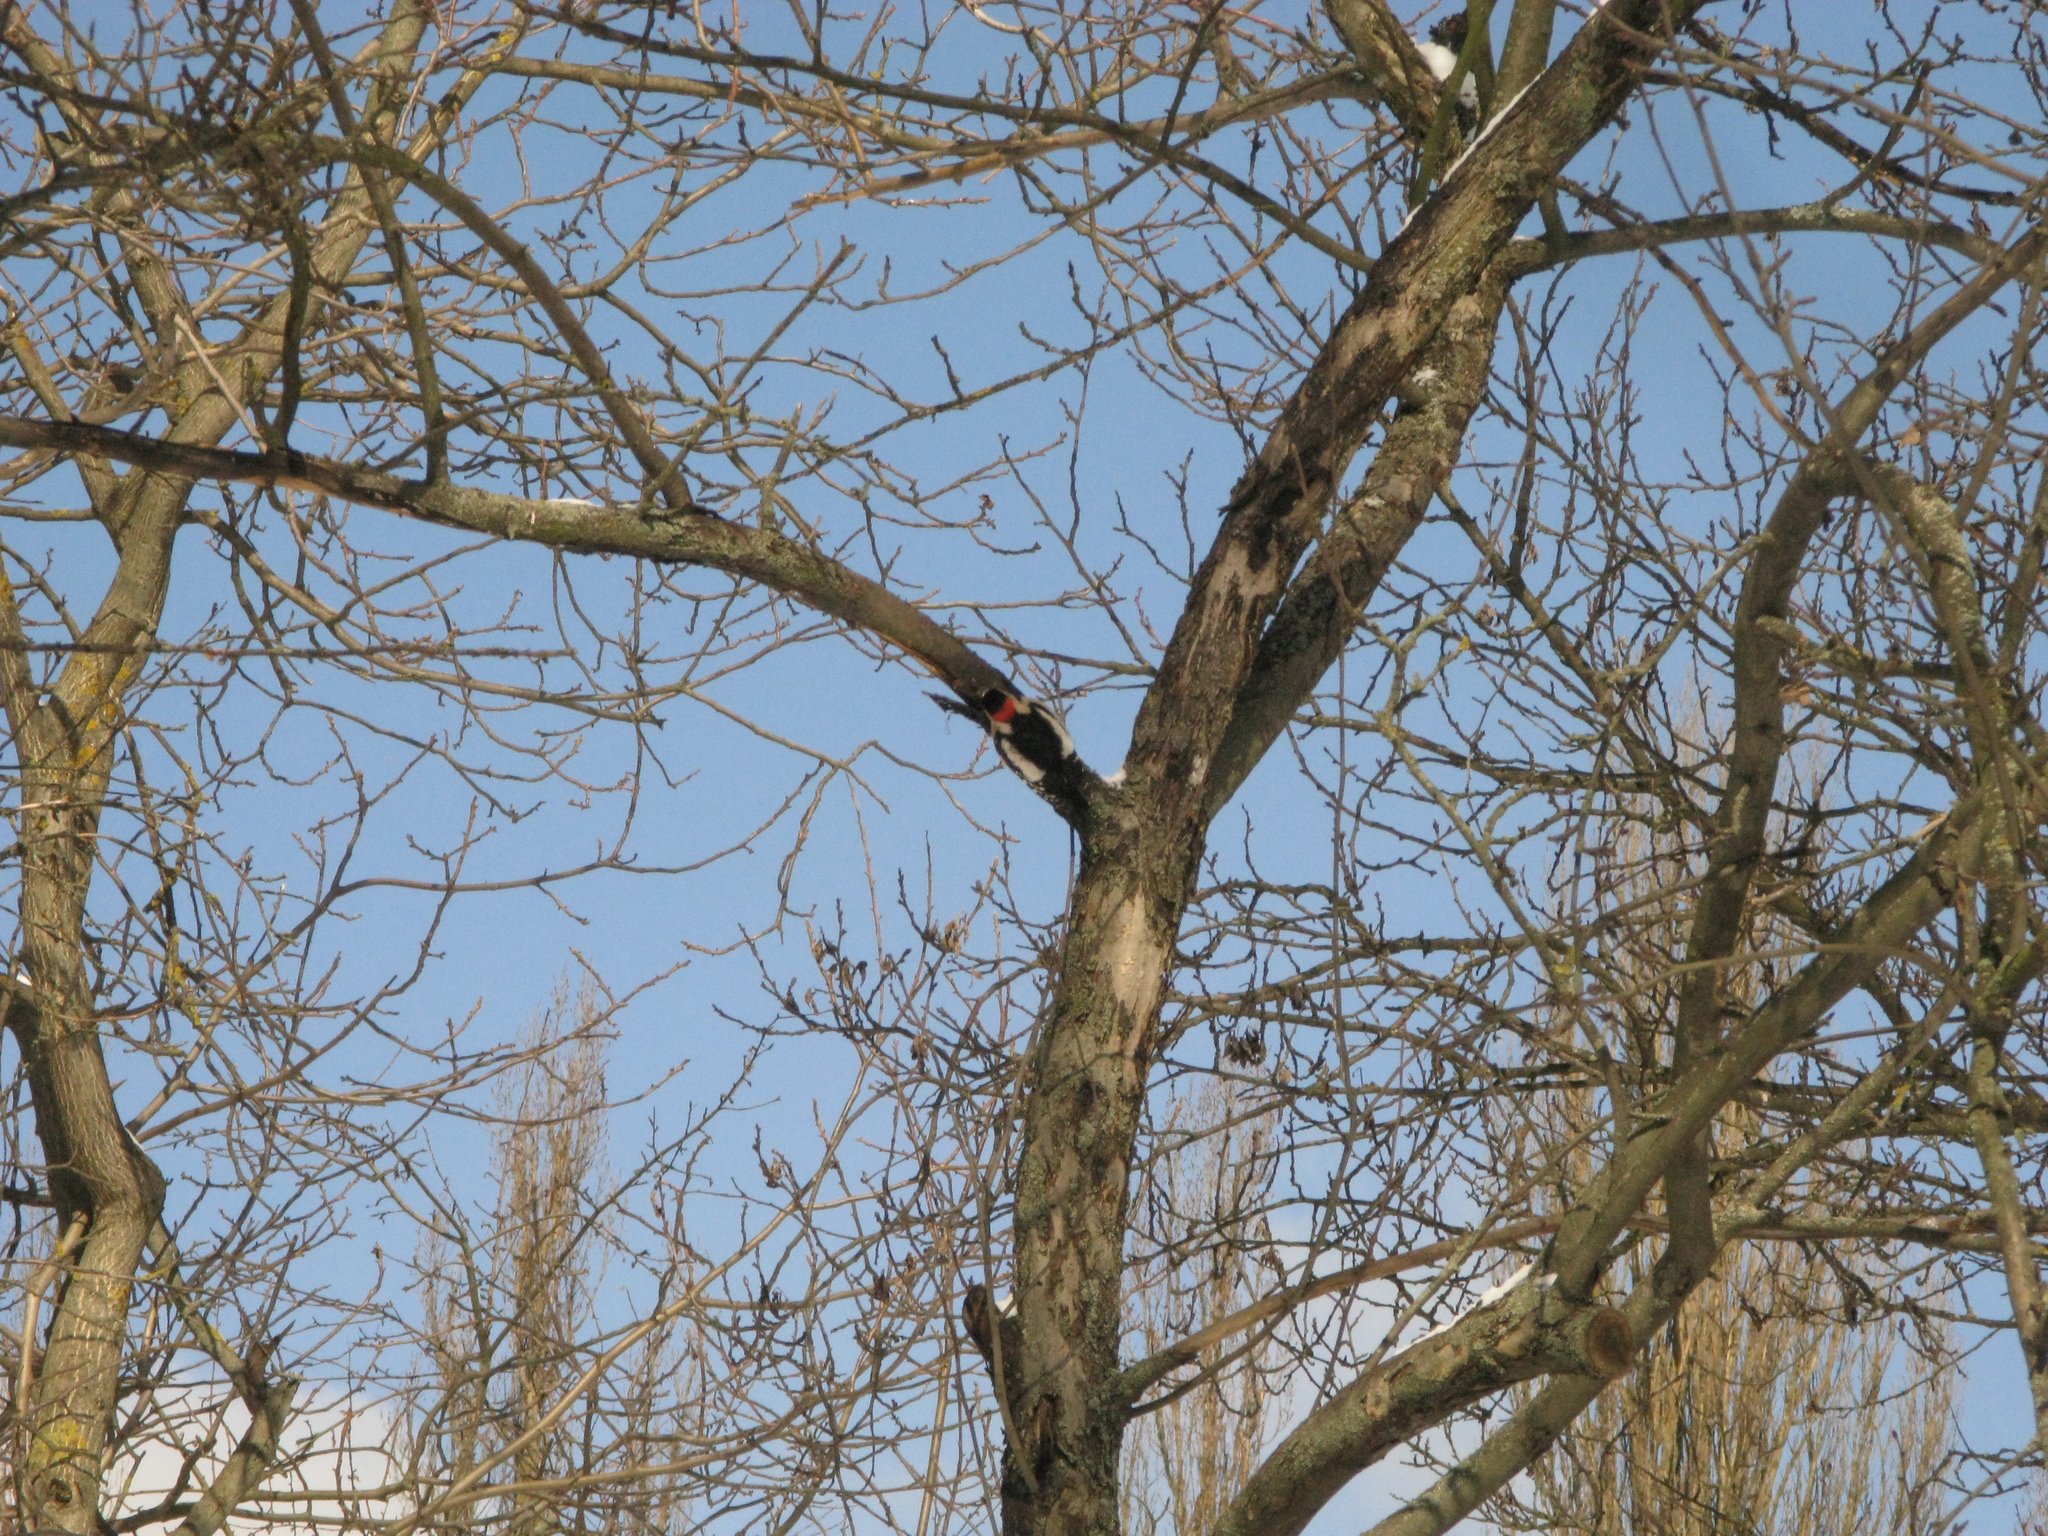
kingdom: Animalia
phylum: Chordata
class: Aves
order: Piciformes
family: Picidae
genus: Dendrocopos
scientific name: Dendrocopos syriacus
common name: Syrian woodpecker
